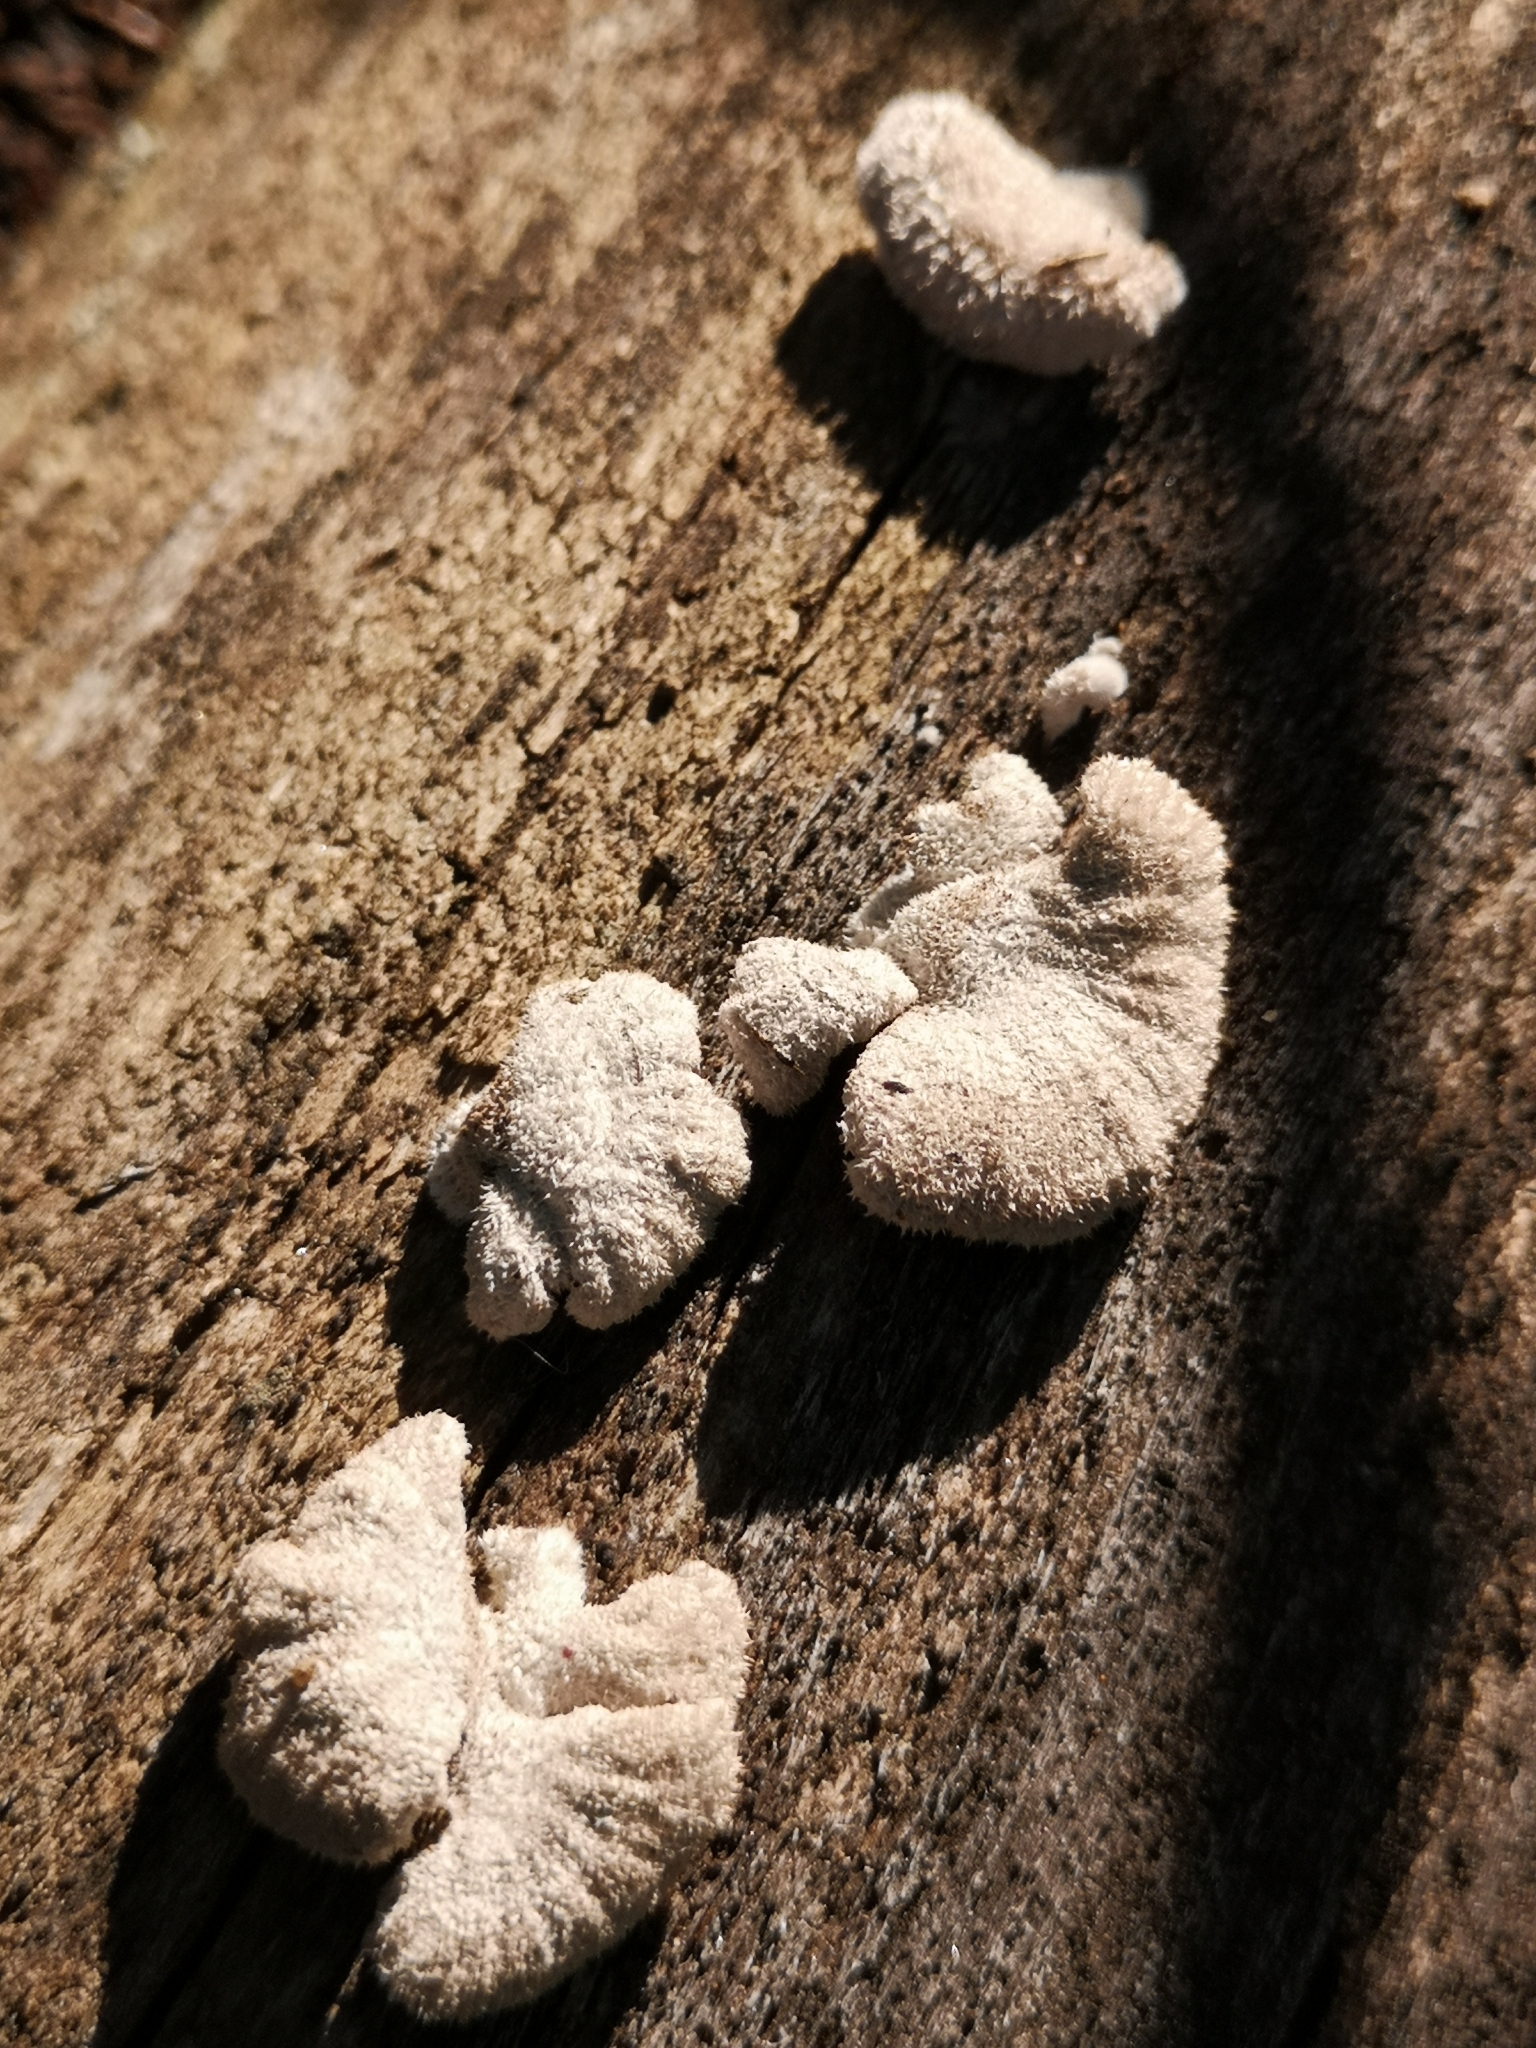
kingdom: Fungi
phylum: Basidiomycota
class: Agaricomycetes
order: Agaricales
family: Schizophyllaceae
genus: Schizophyllum
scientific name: Schizophyllum commune
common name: Common porecrust
